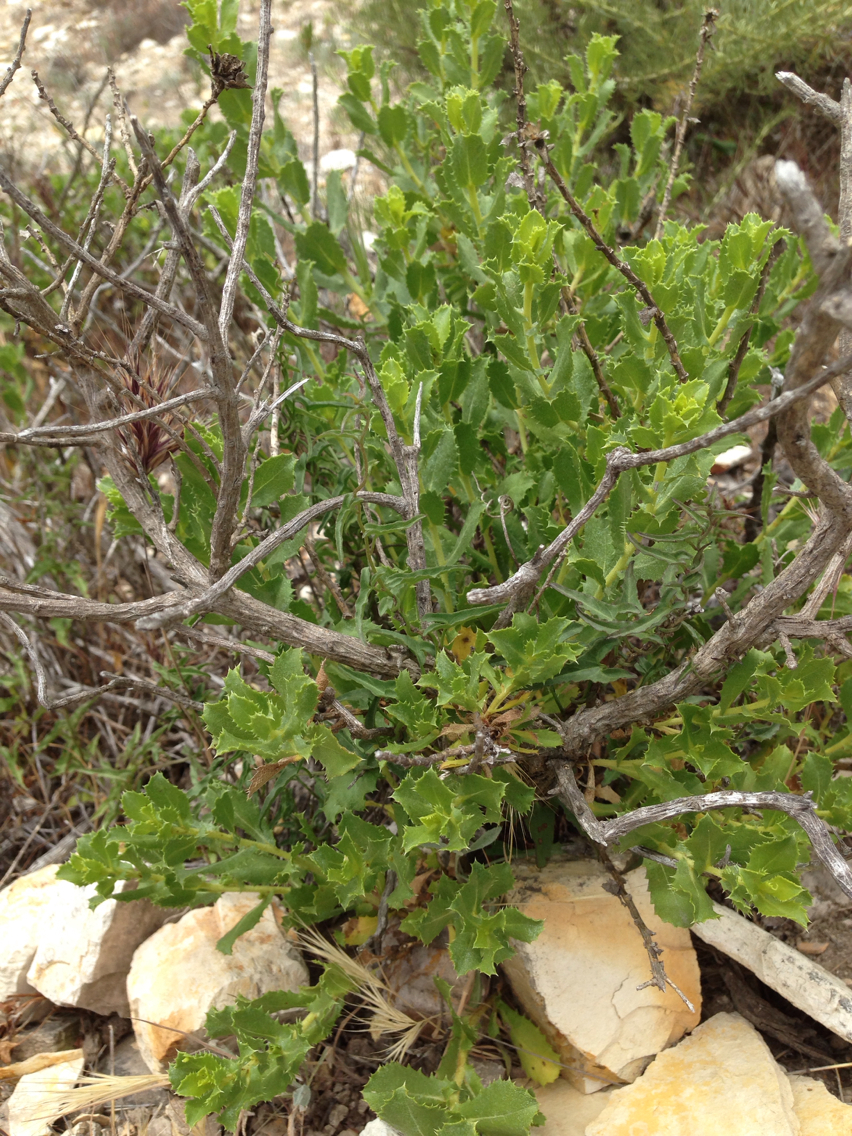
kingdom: Plantae
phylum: Tracheophyta
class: Magnoliopsida
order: Asterales
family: Asteraceae
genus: Hazardia
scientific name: Hazardia squarrosa
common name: Saw-tooth goldenbush
